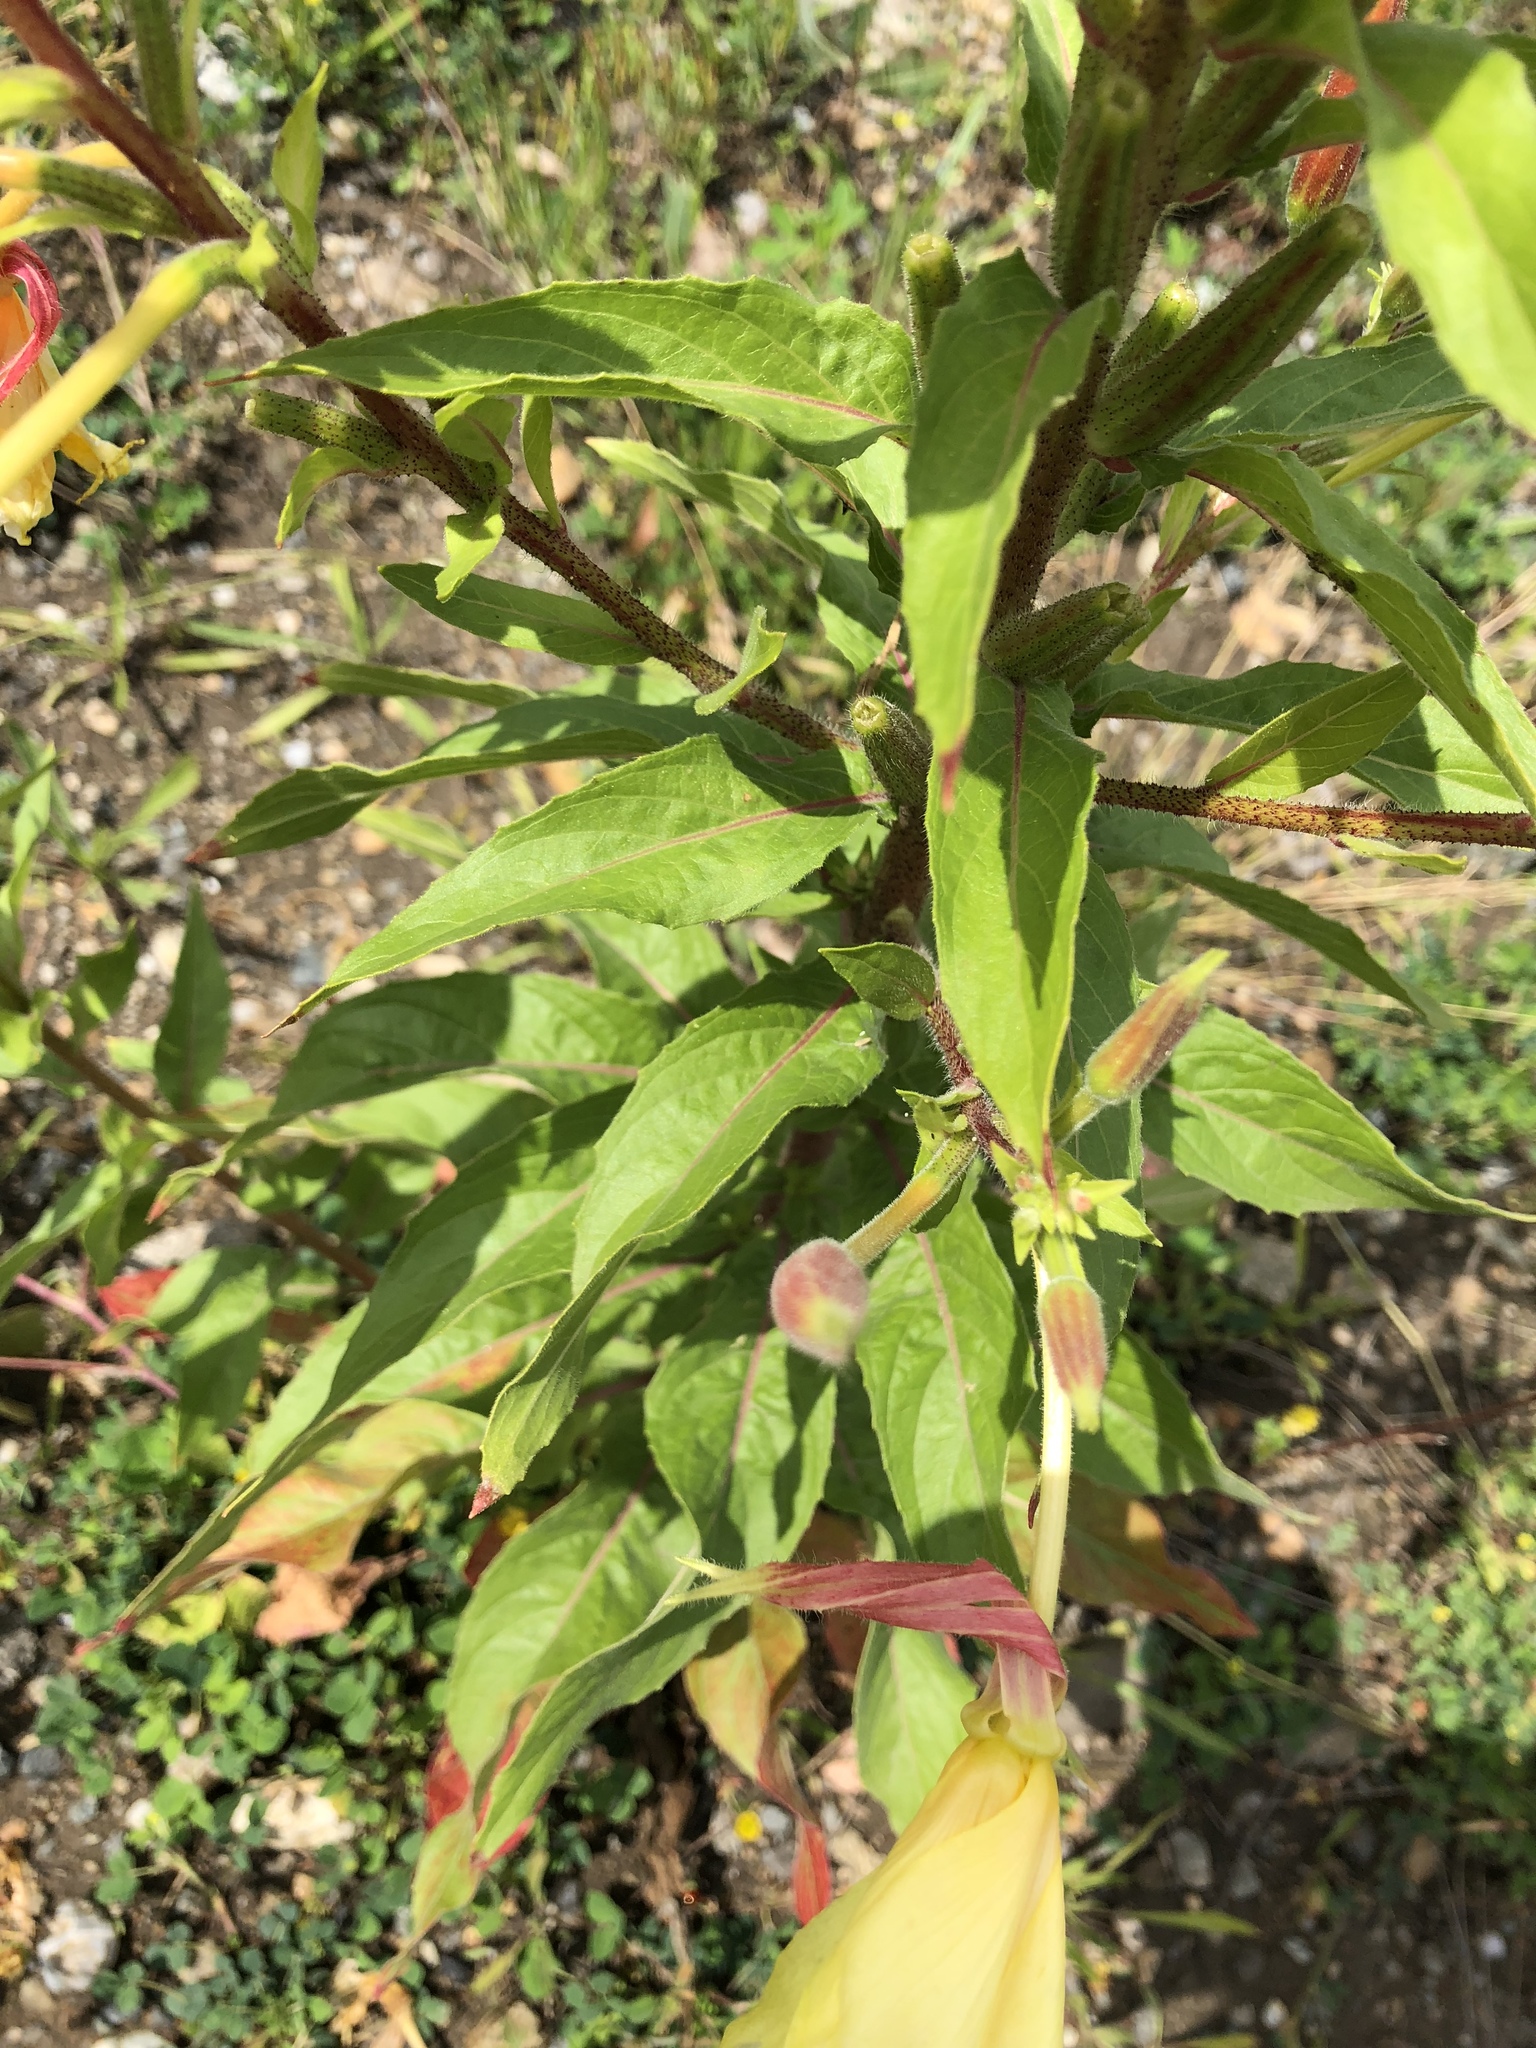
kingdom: Plantae
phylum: Tracheophyta
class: Magnoliopsida
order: Myrtales
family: Onagraceae
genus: Oenothera
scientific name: Oenothera glazioviana
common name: Large-flowered evening-primrose
